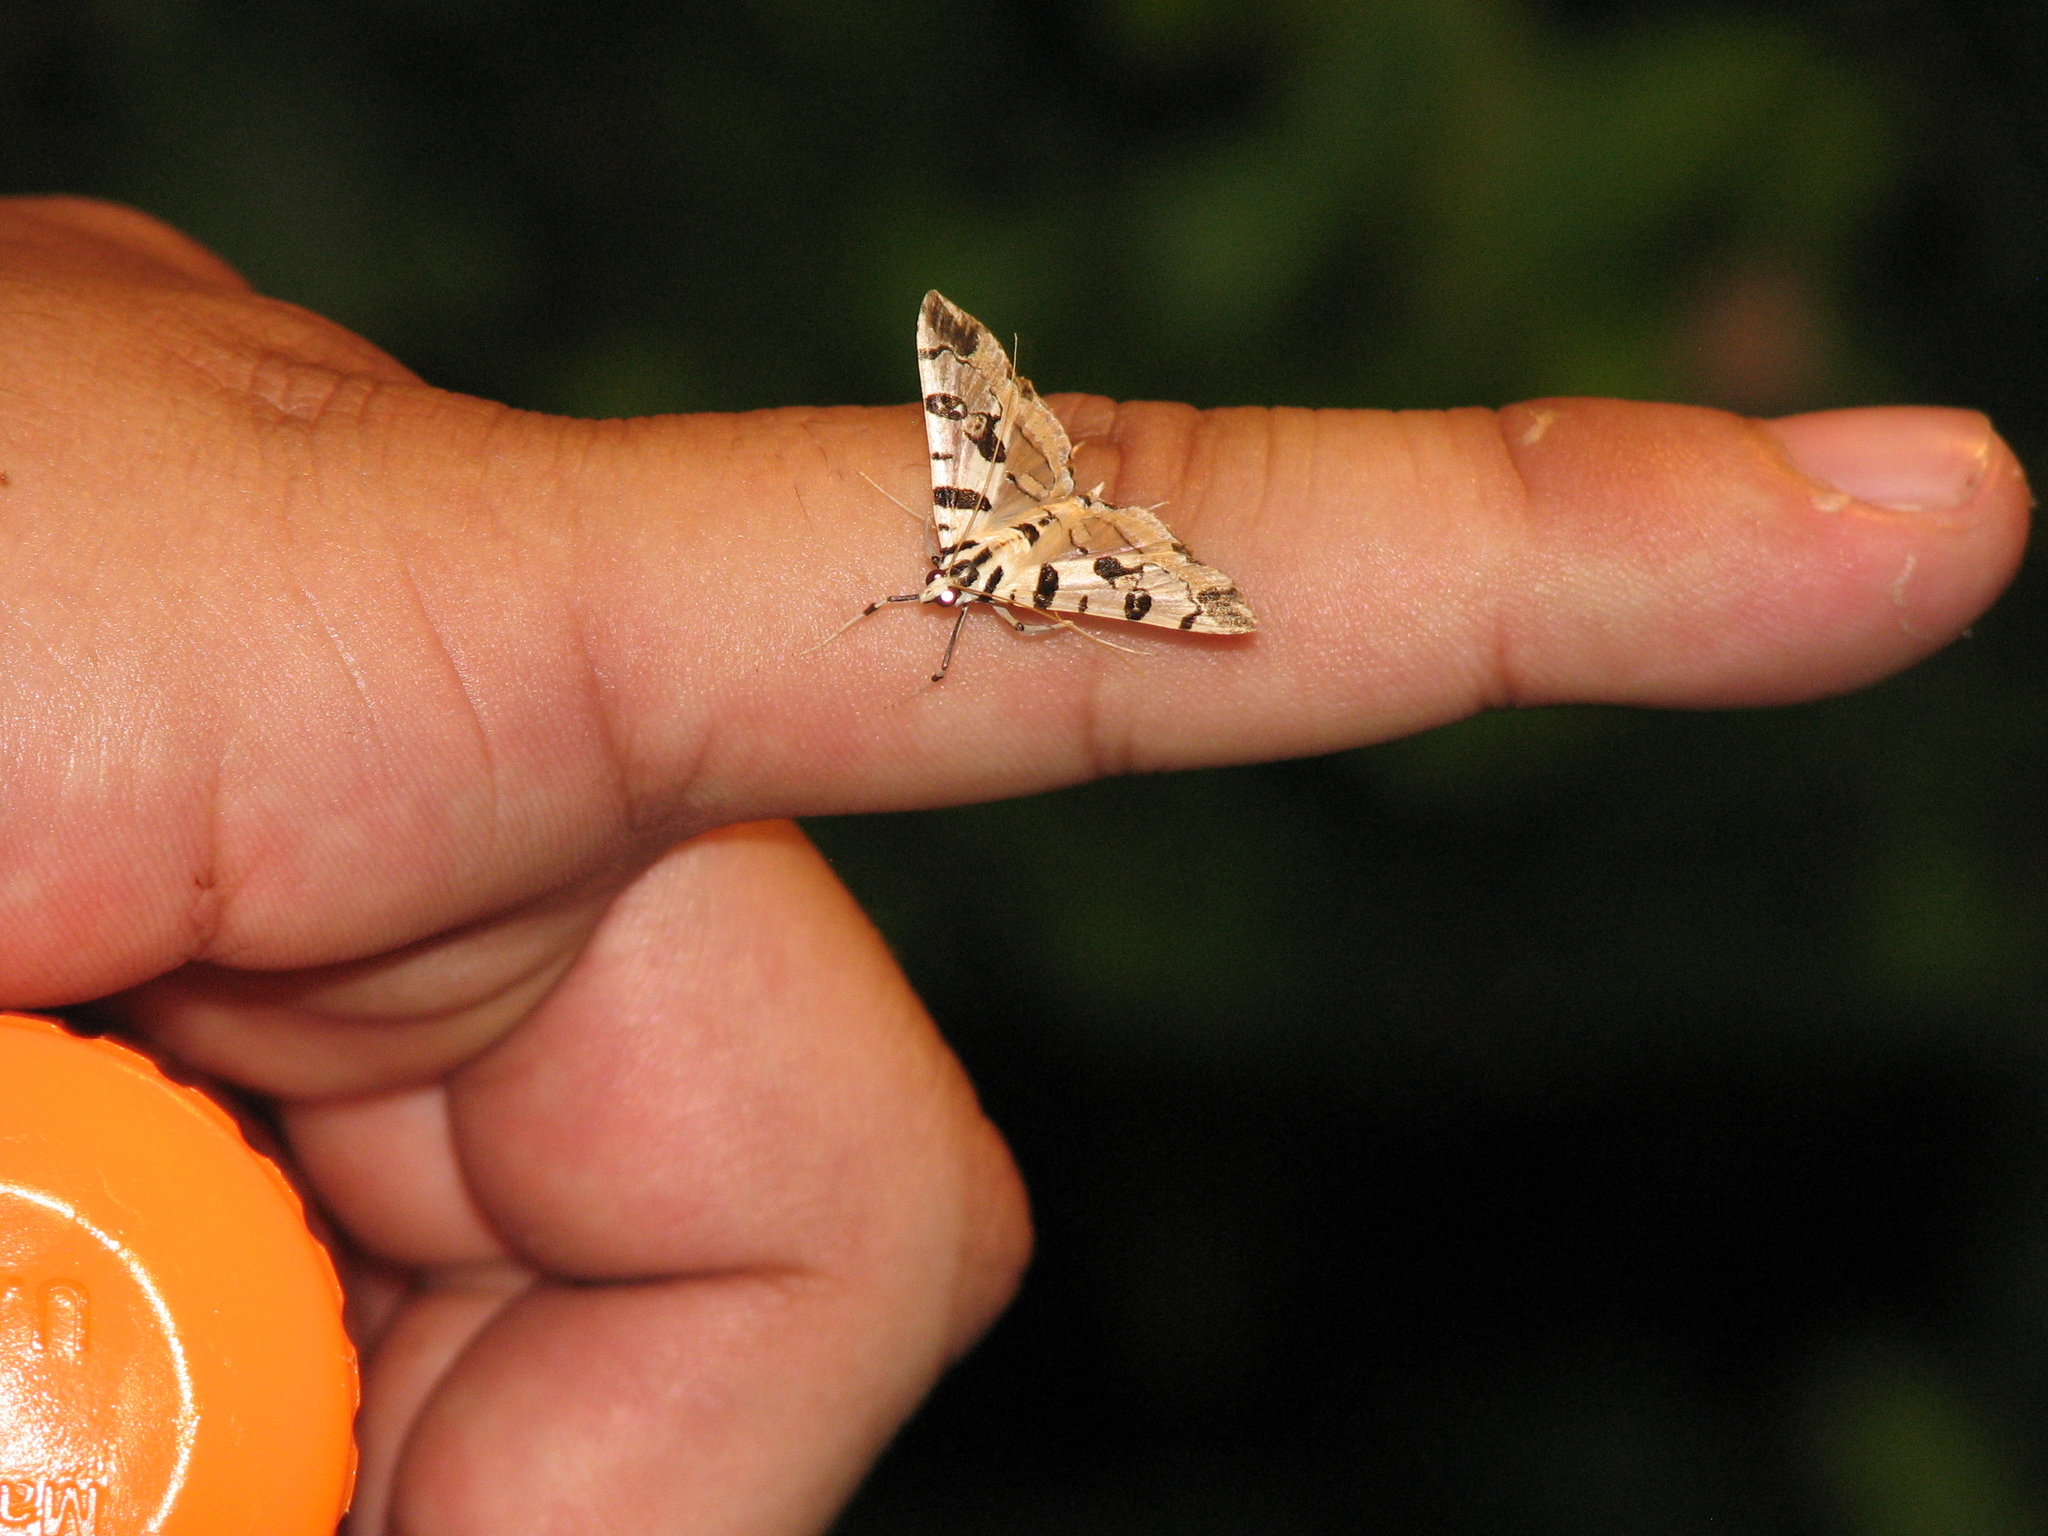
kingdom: Animalia
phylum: Arthropoda
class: Insecta
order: Lepidoptera
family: Crambidae
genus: Conchylodes
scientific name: Conchylodes salamisalis
